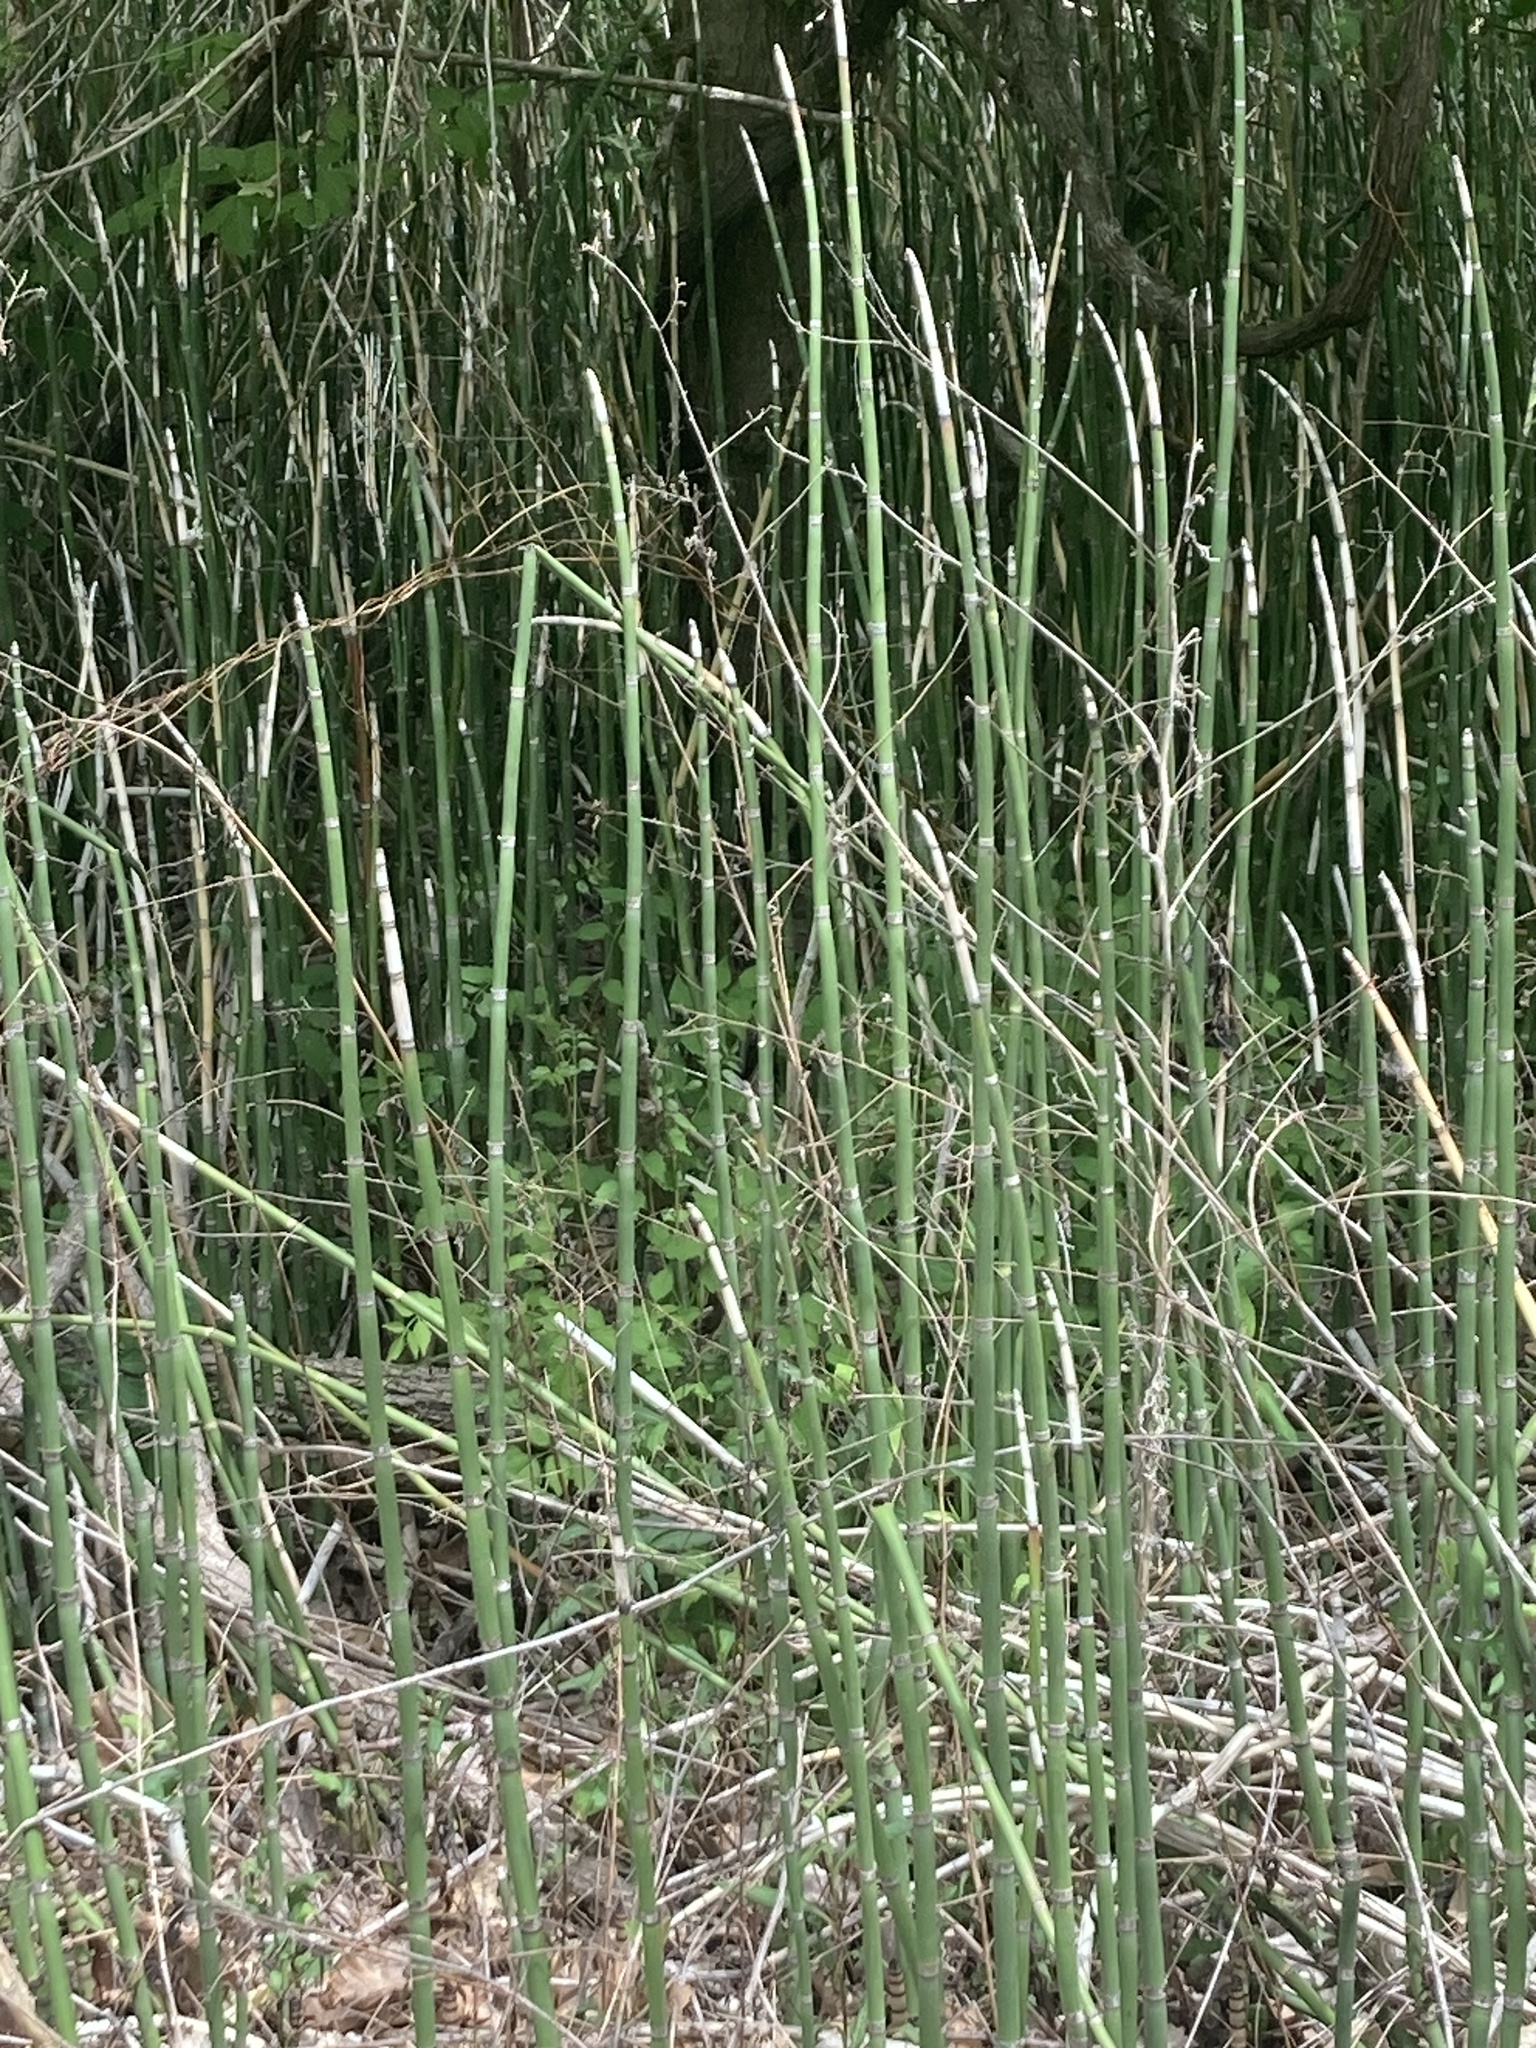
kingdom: Plantae
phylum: Tracheophyta
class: Polypodiopsida
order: Equisetales
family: Equisetaceae
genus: Equisetum
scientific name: Equisetum hyemale
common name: Rough horsetail
